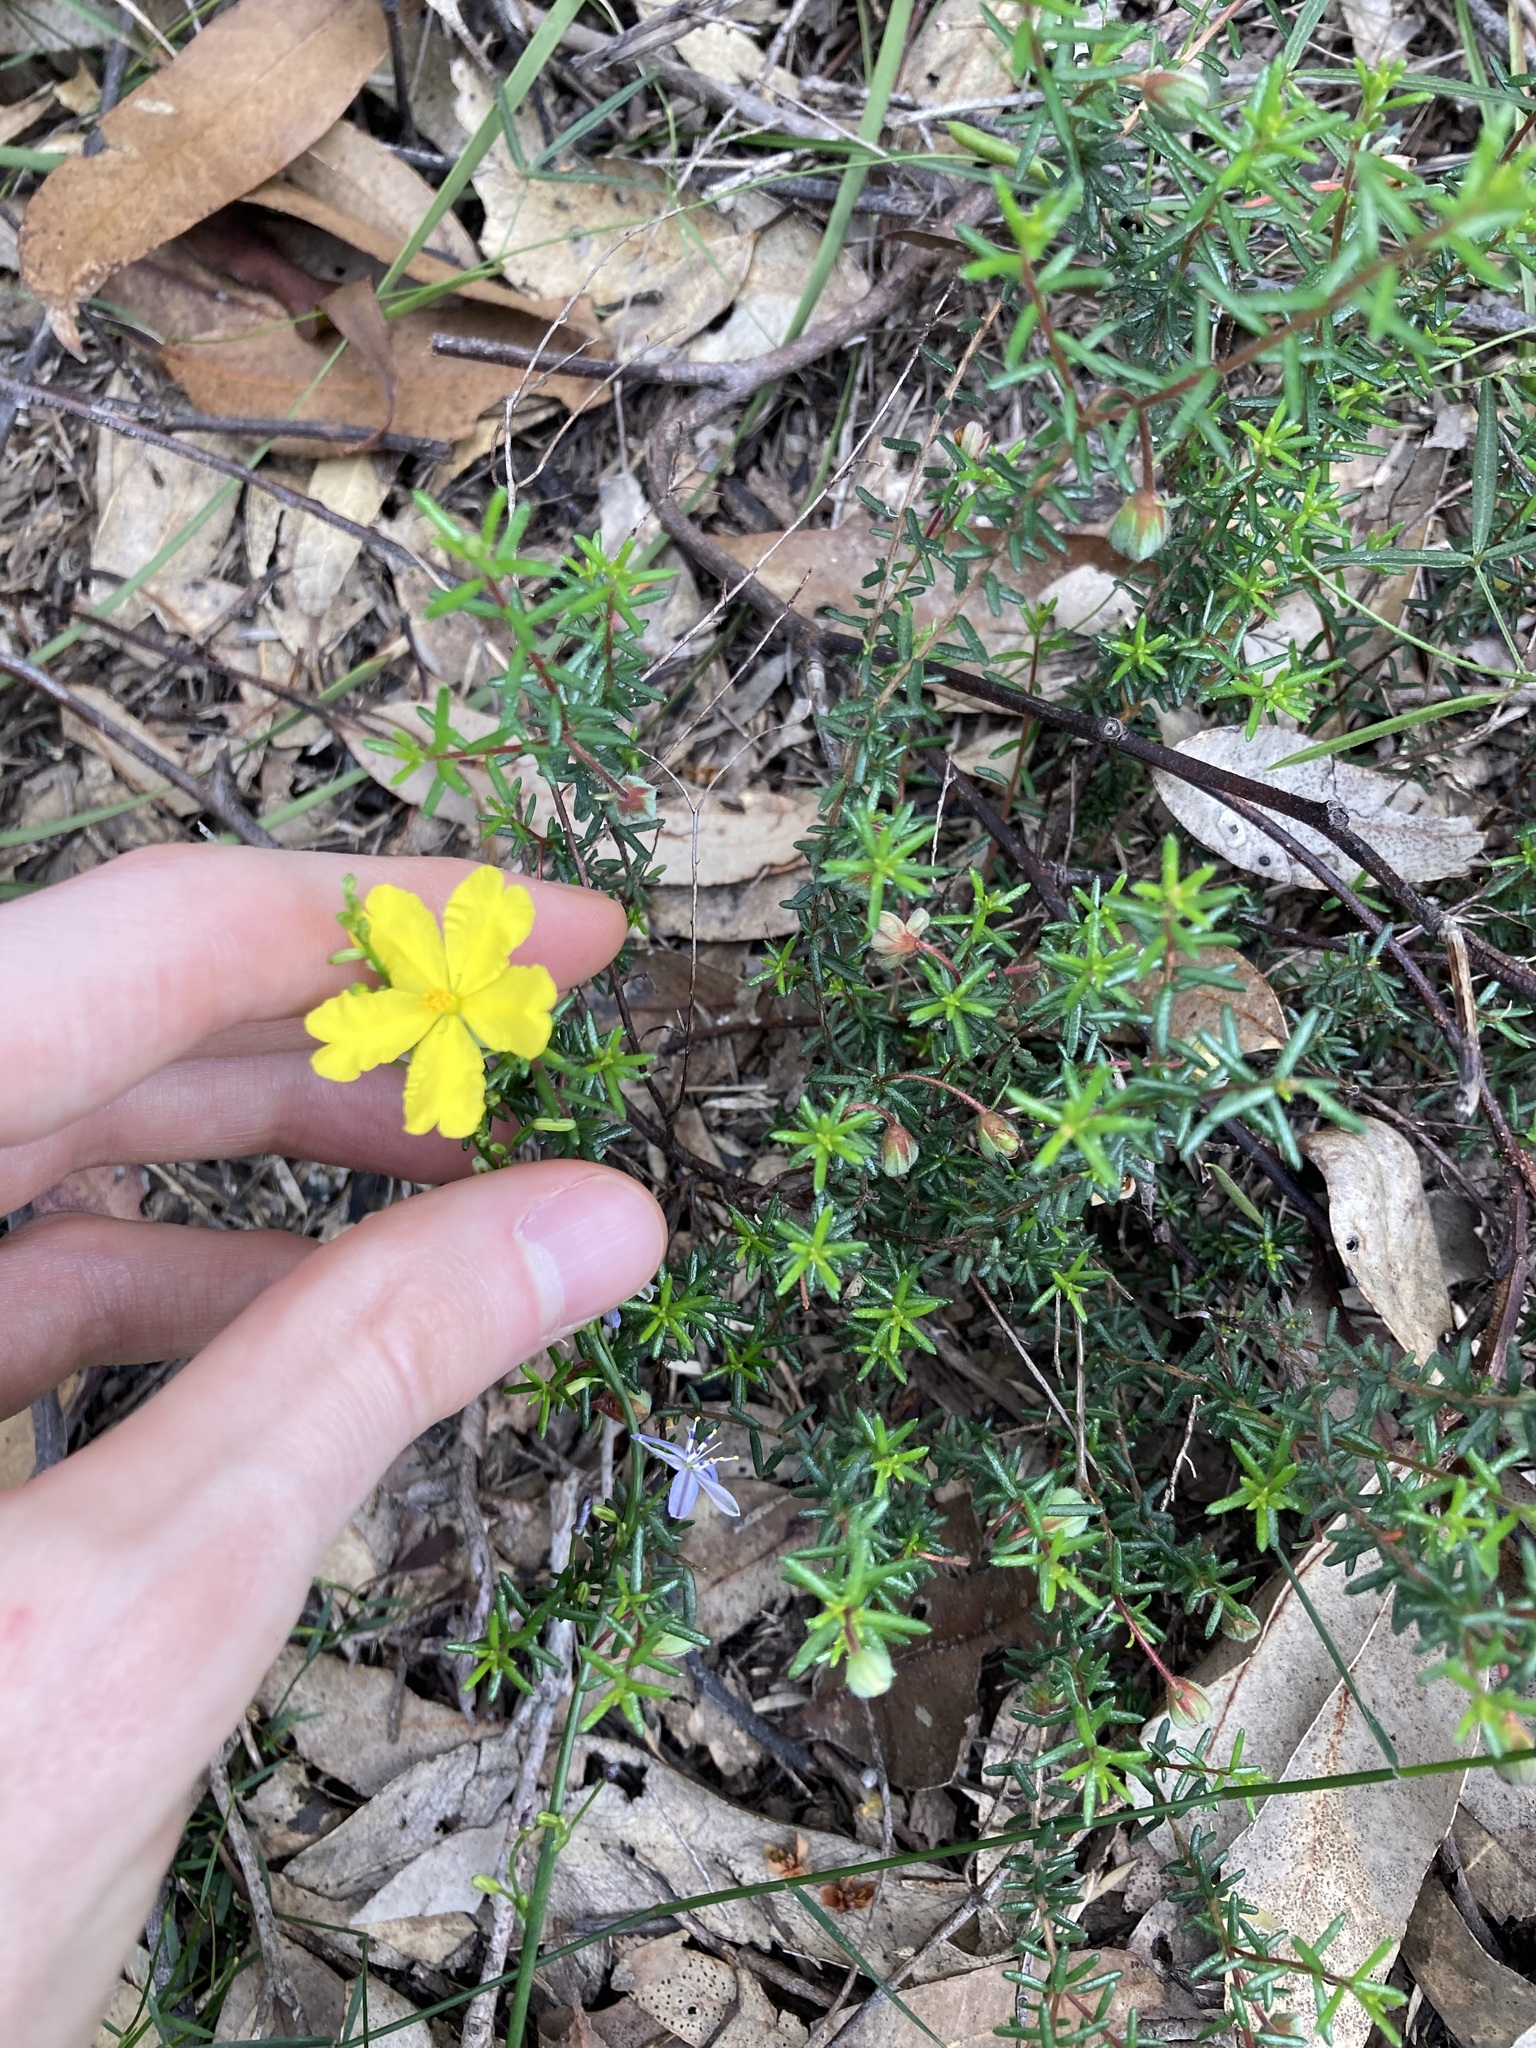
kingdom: Plantae
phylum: Tracheophyta
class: Magnoliopsida
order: Dilleniales
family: Dilleniaceae
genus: Hibbertia
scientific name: Hibbertia pedunculata
